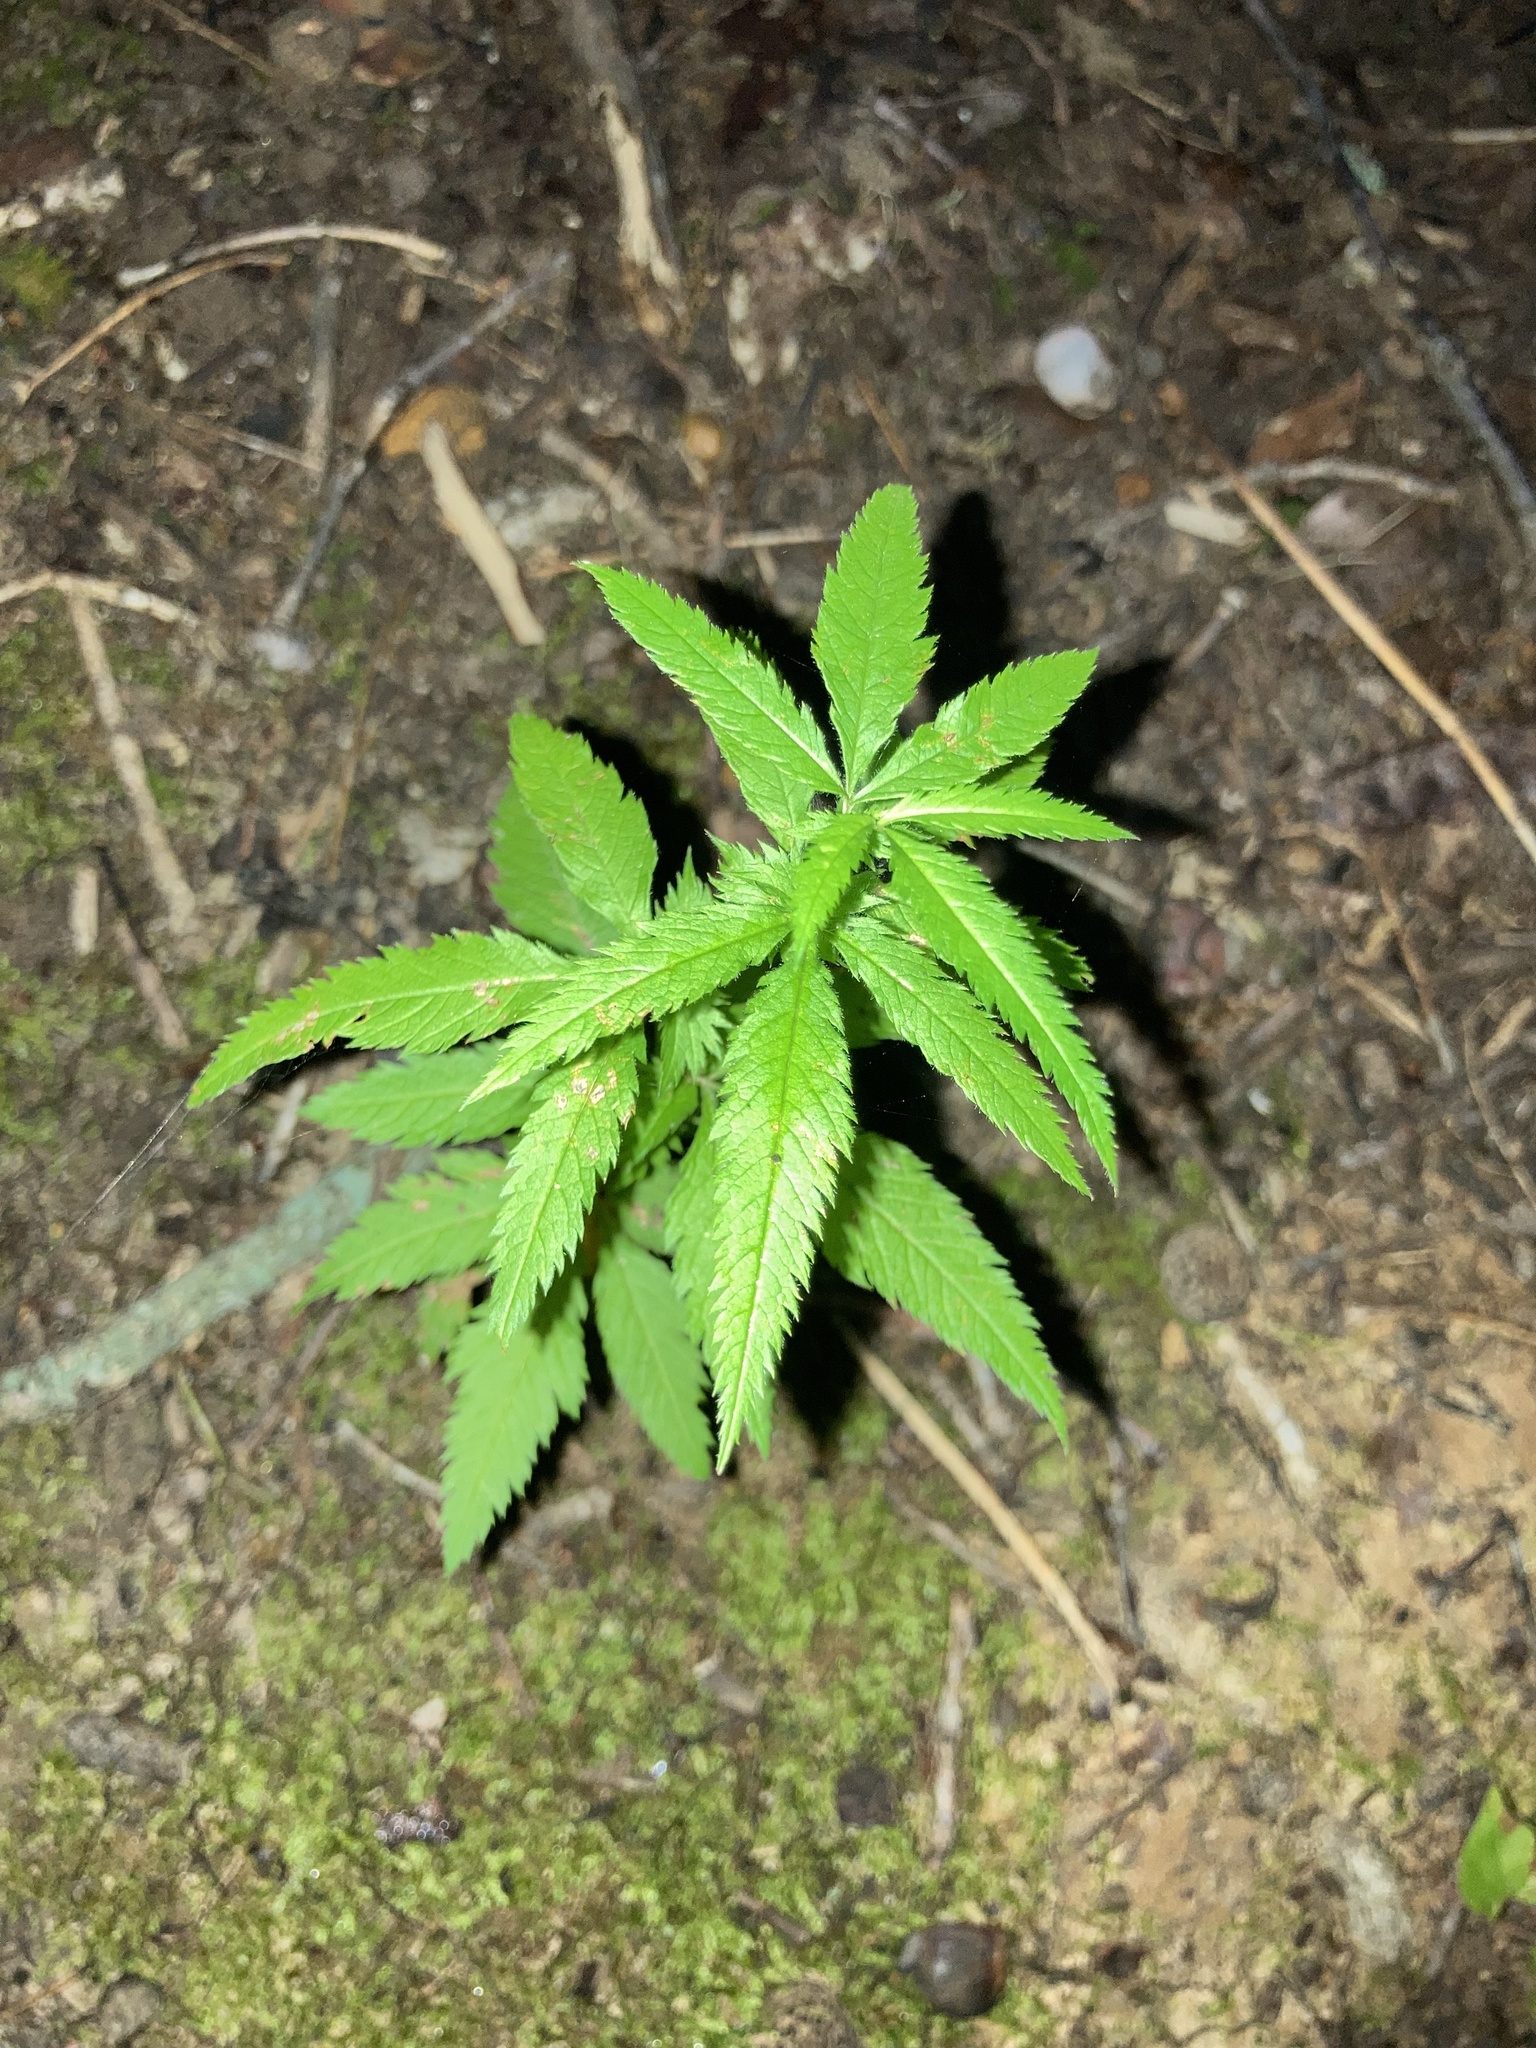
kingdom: Plantae
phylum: Tracheophyta
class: Magnoliopsida
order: Rosales
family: Rosaceae
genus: Gillenia
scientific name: Gillenia stipulata
